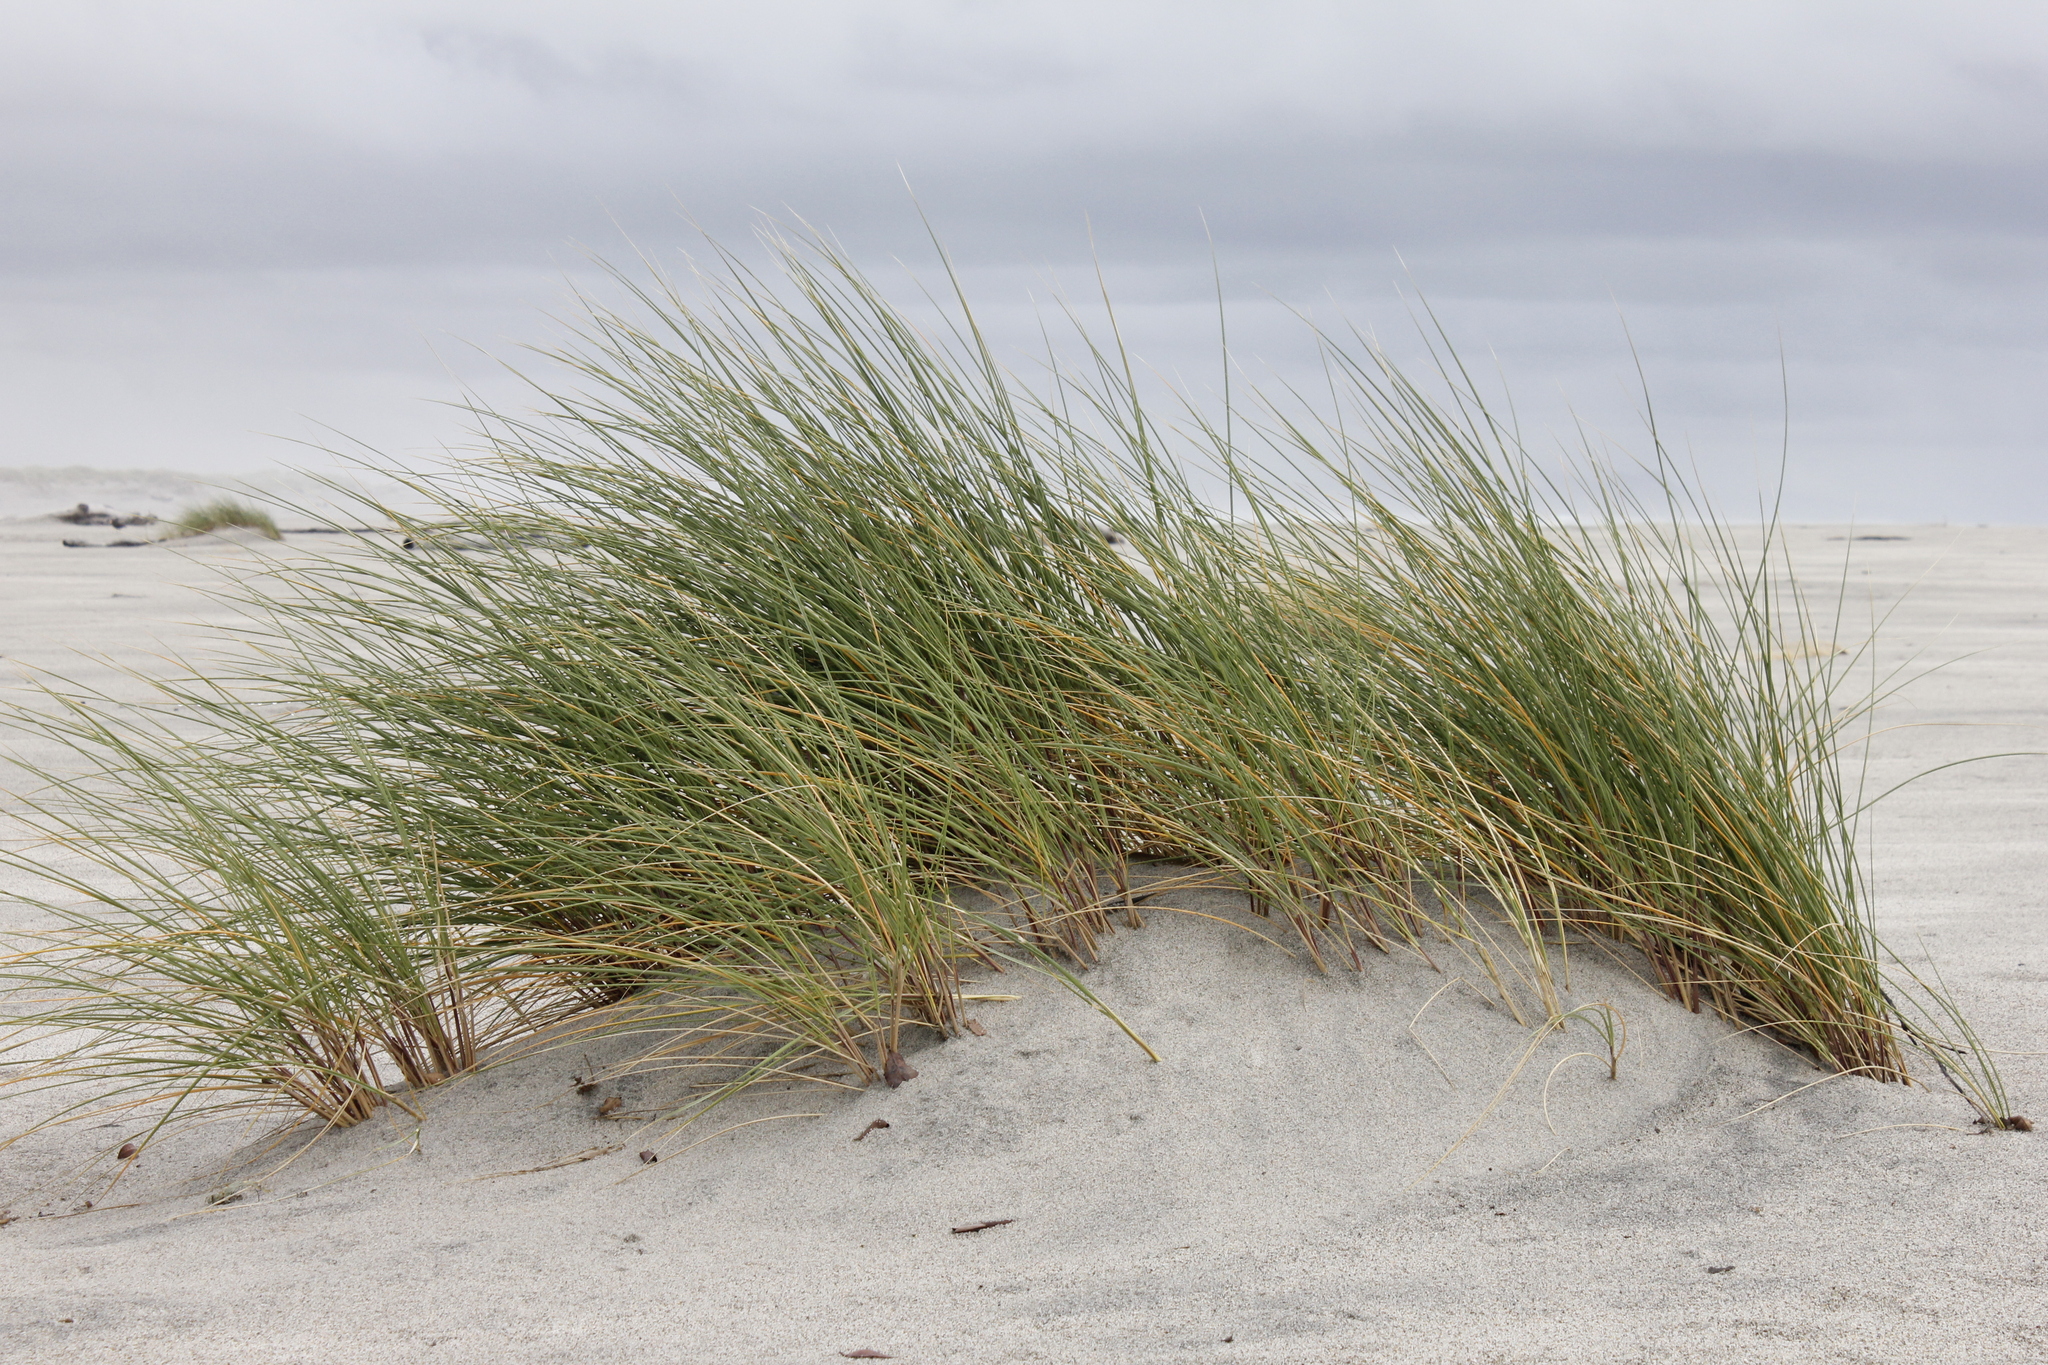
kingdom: Plantae
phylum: Tracheophyta
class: Liliopsida
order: Poales
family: Poaceae
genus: Calamagrostis
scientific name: Calamagrostis arenaria
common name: European beachgrass
